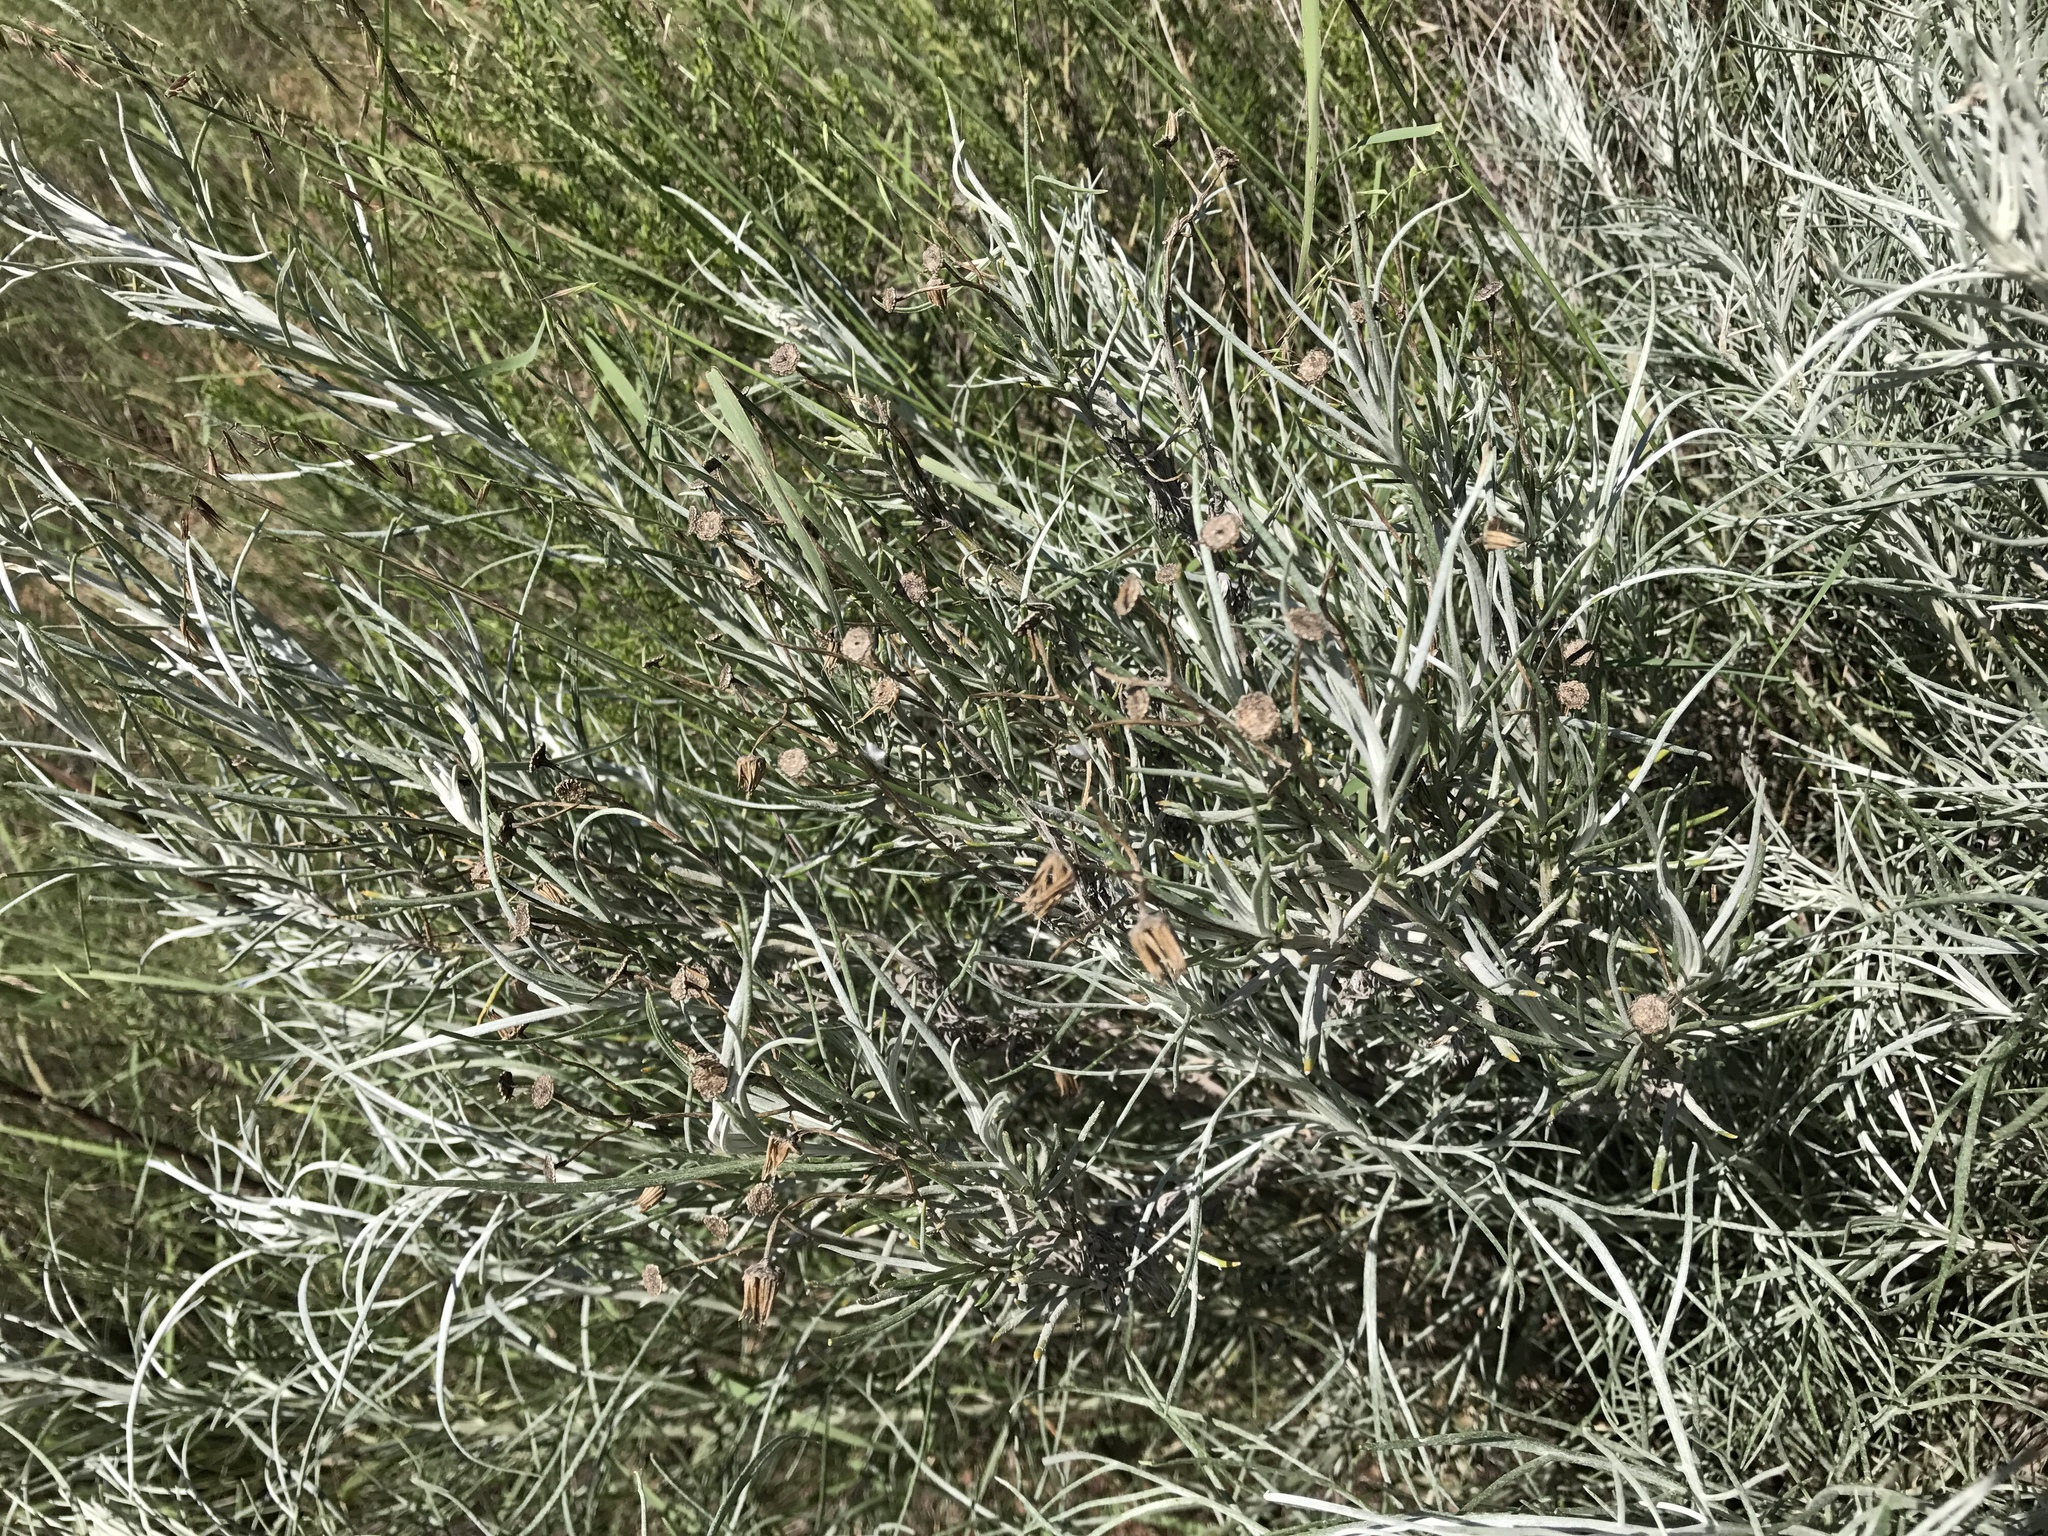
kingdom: Plantae
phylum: Tracheophyta
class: Magnoliopsida
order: Asterales
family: Asteraceae
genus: Senecio
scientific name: Senecio flaccidus
